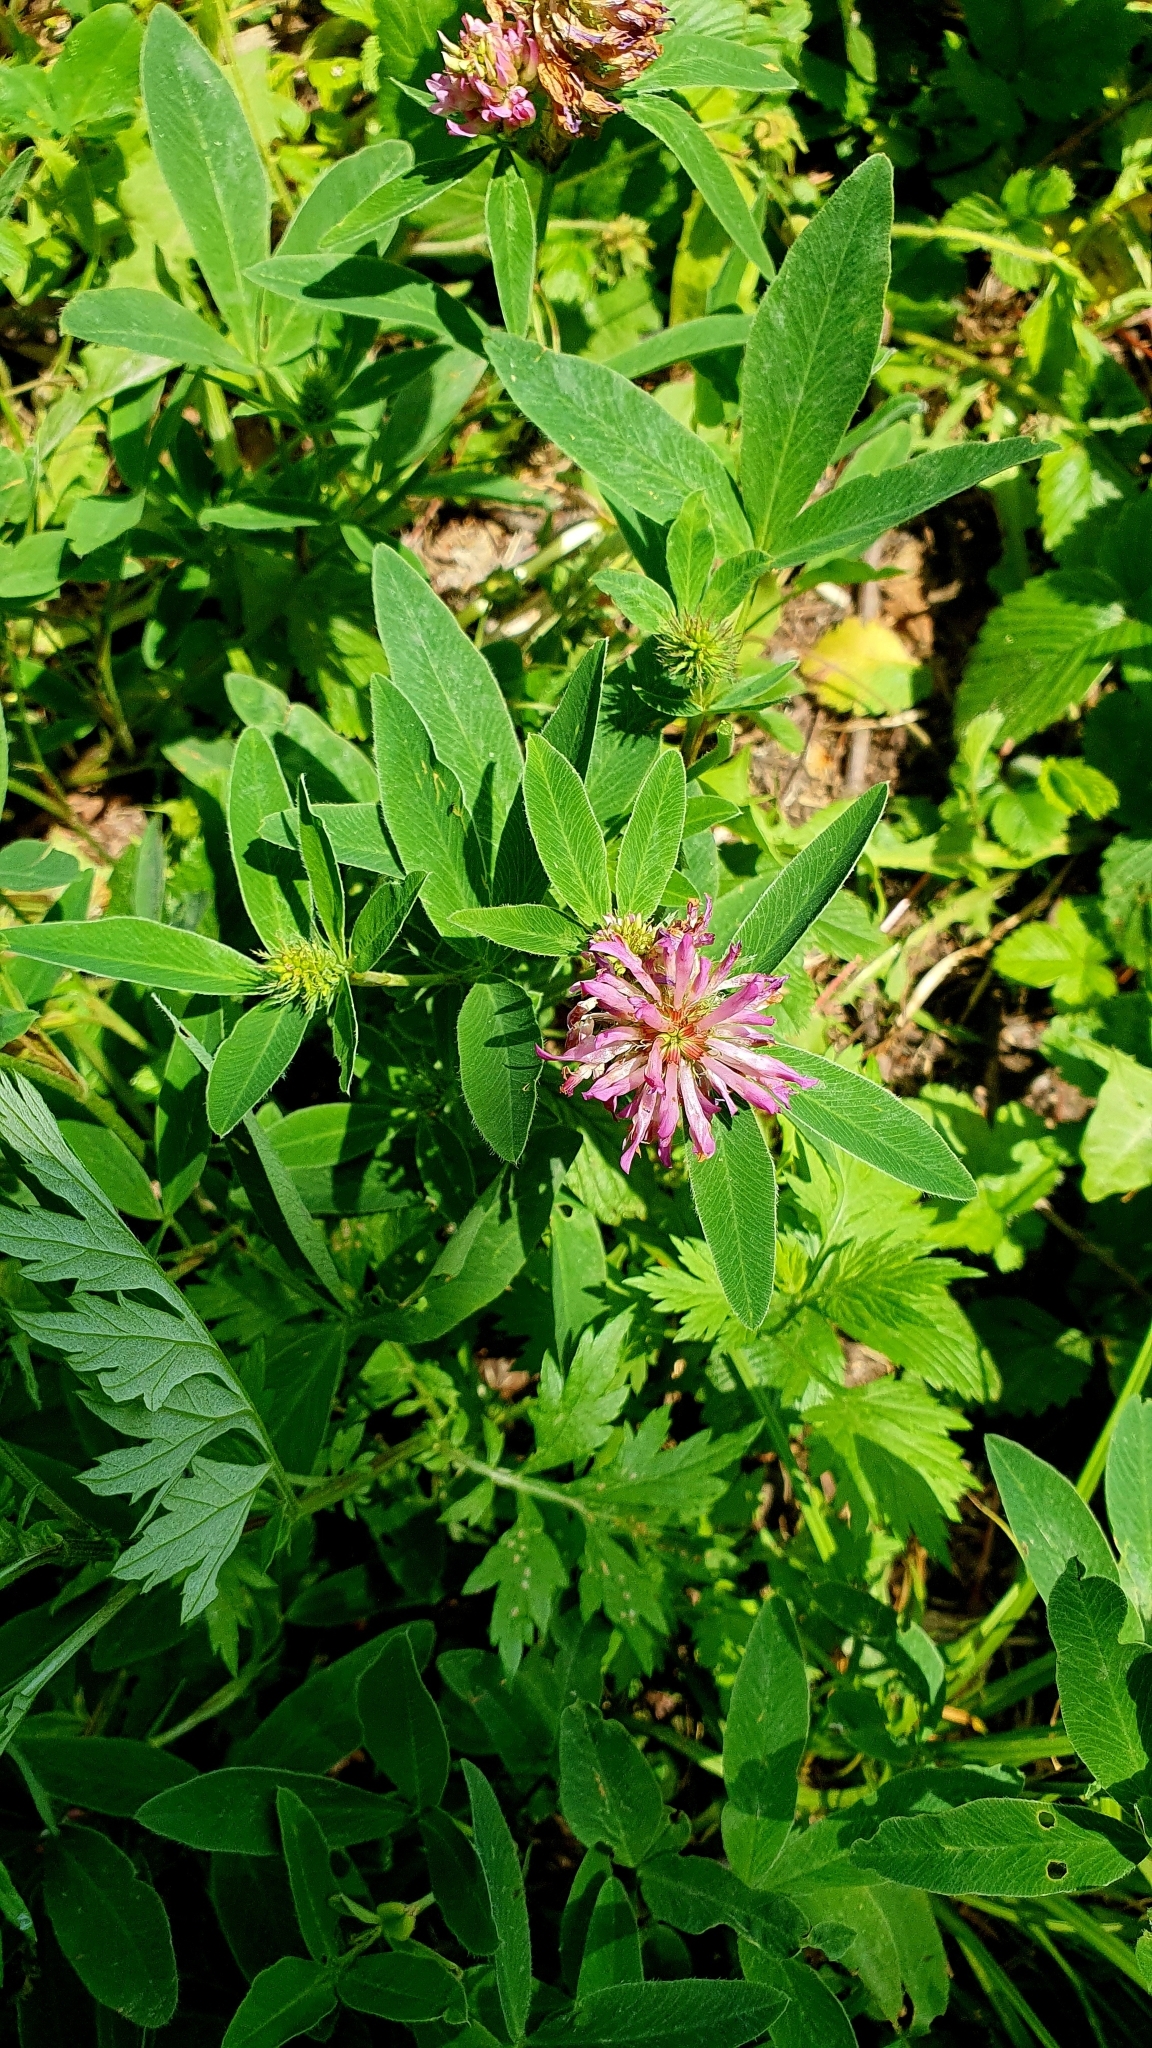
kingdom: Plantae
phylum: Tracheophyta
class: Magnoliopsida
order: Fabales
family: Fabaceae
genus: Trifolium
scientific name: Trifolium medium
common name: Zigzag clover
